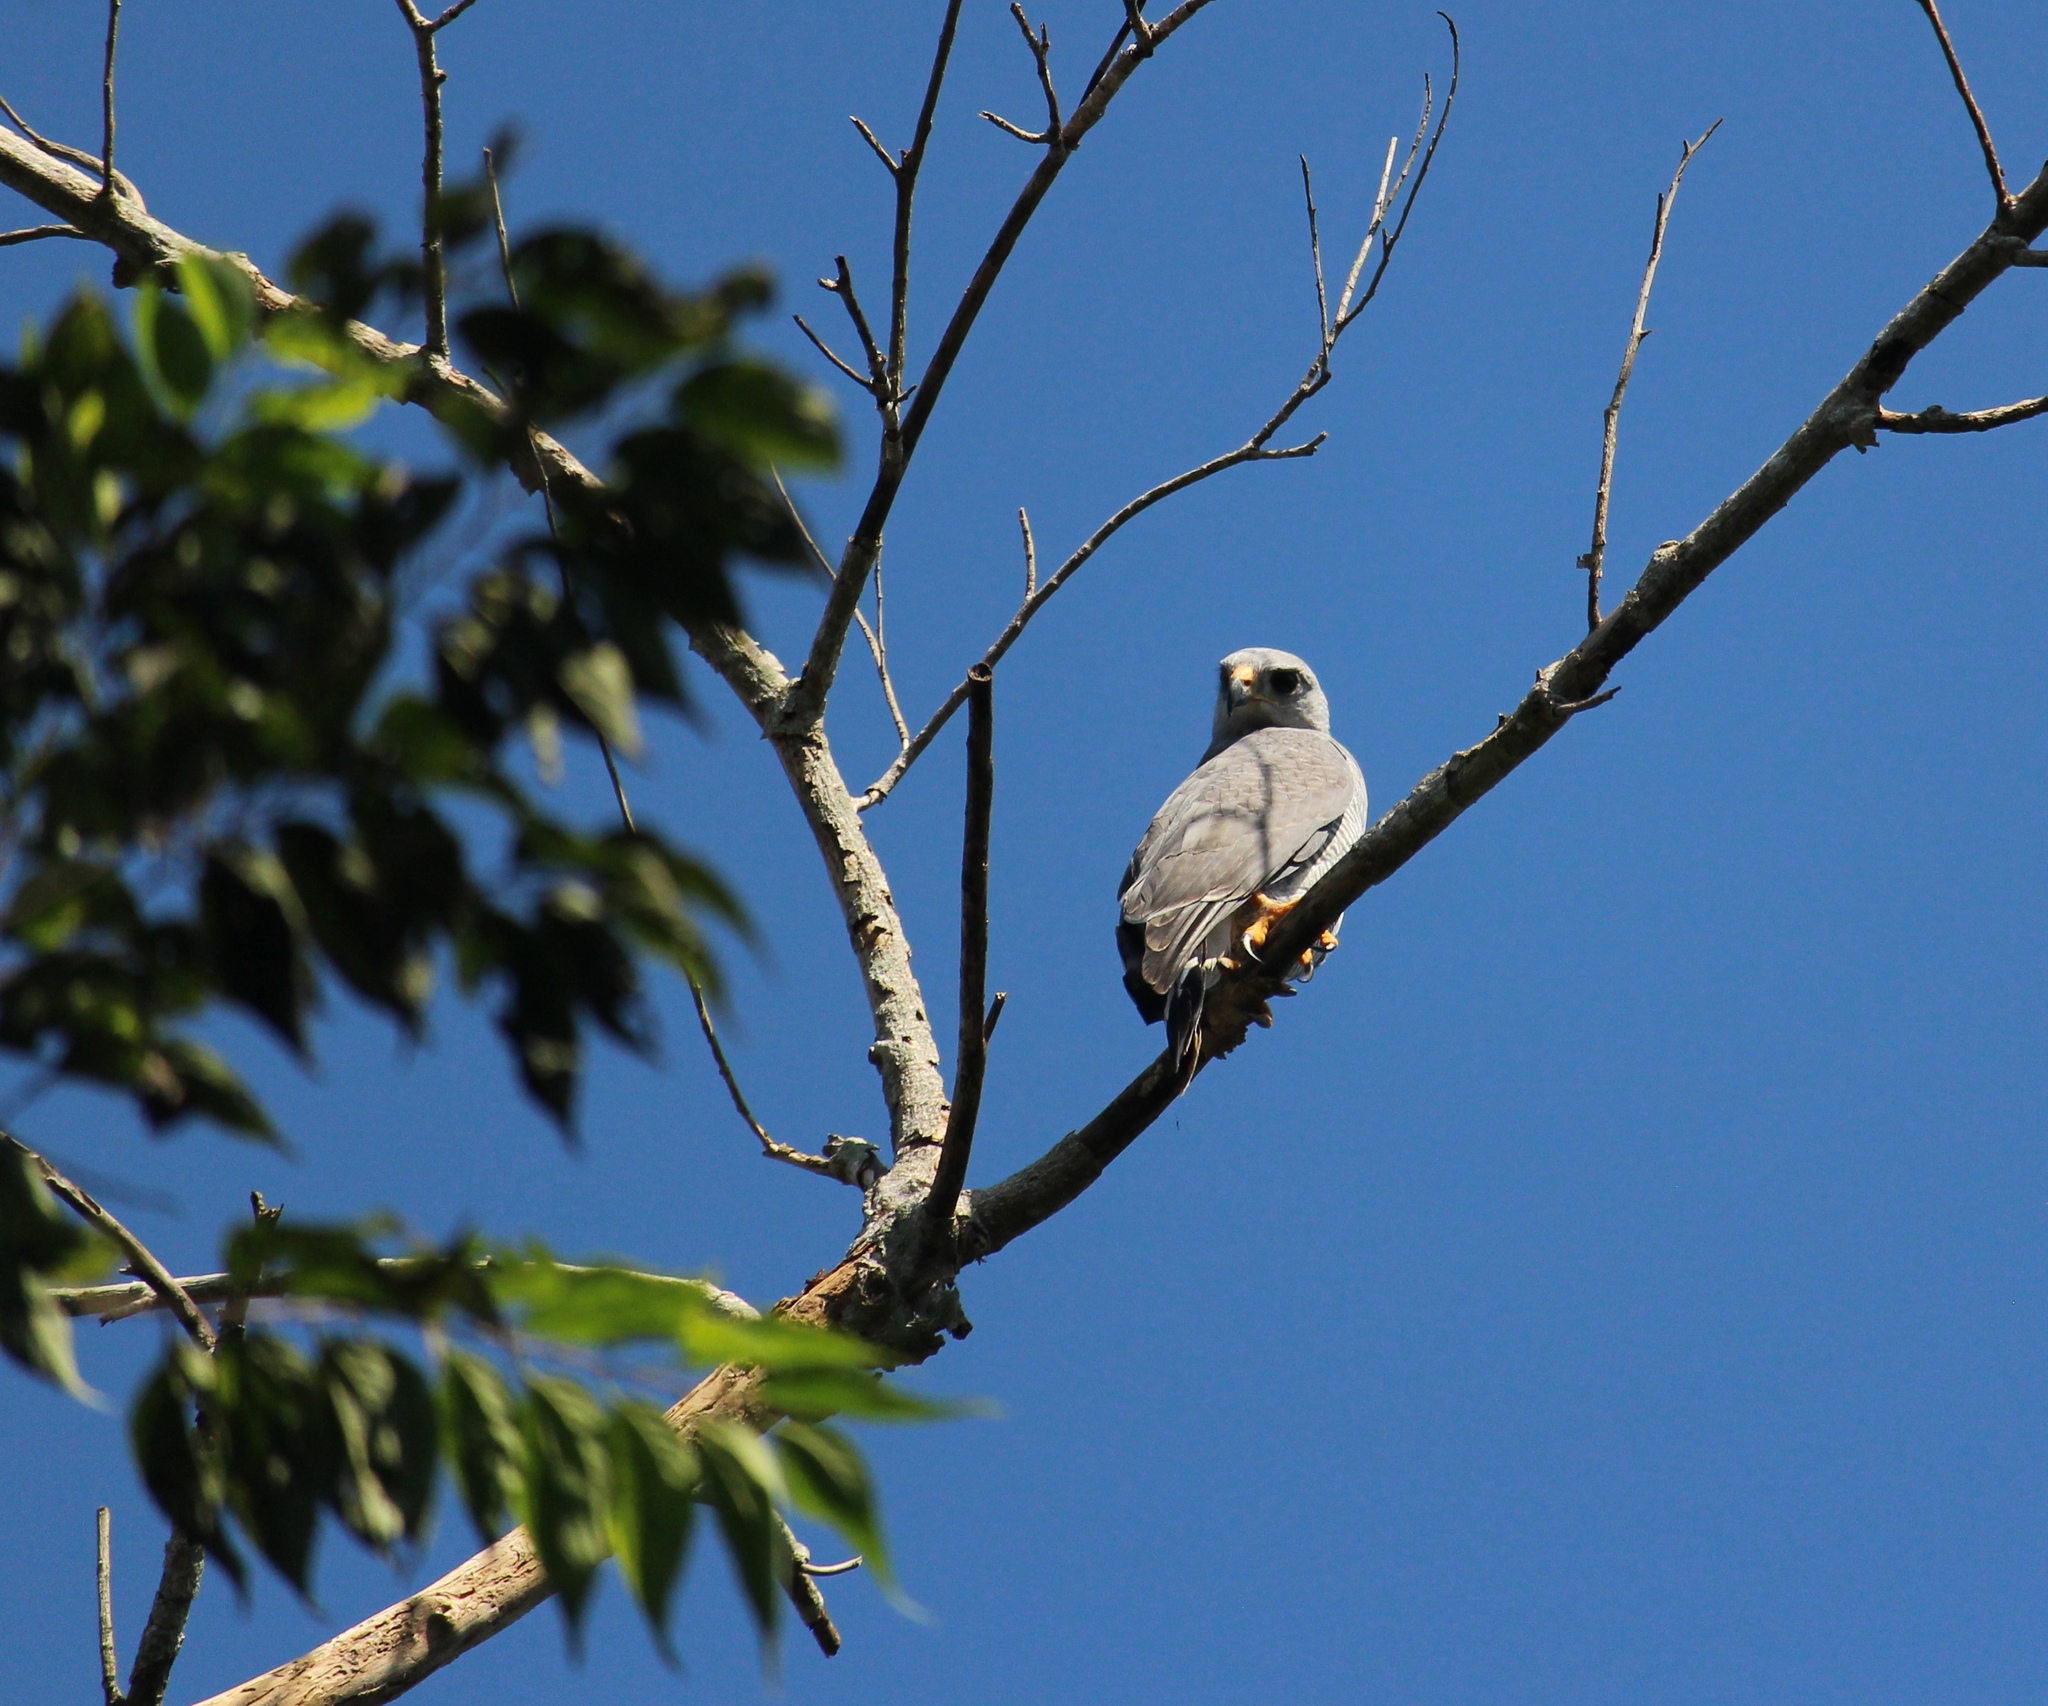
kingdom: Animalia
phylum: Chordata
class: Aves
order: Accipitriformes
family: Accipitridae
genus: Buteo
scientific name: Buteo nitidus
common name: Grey-lined hawk
